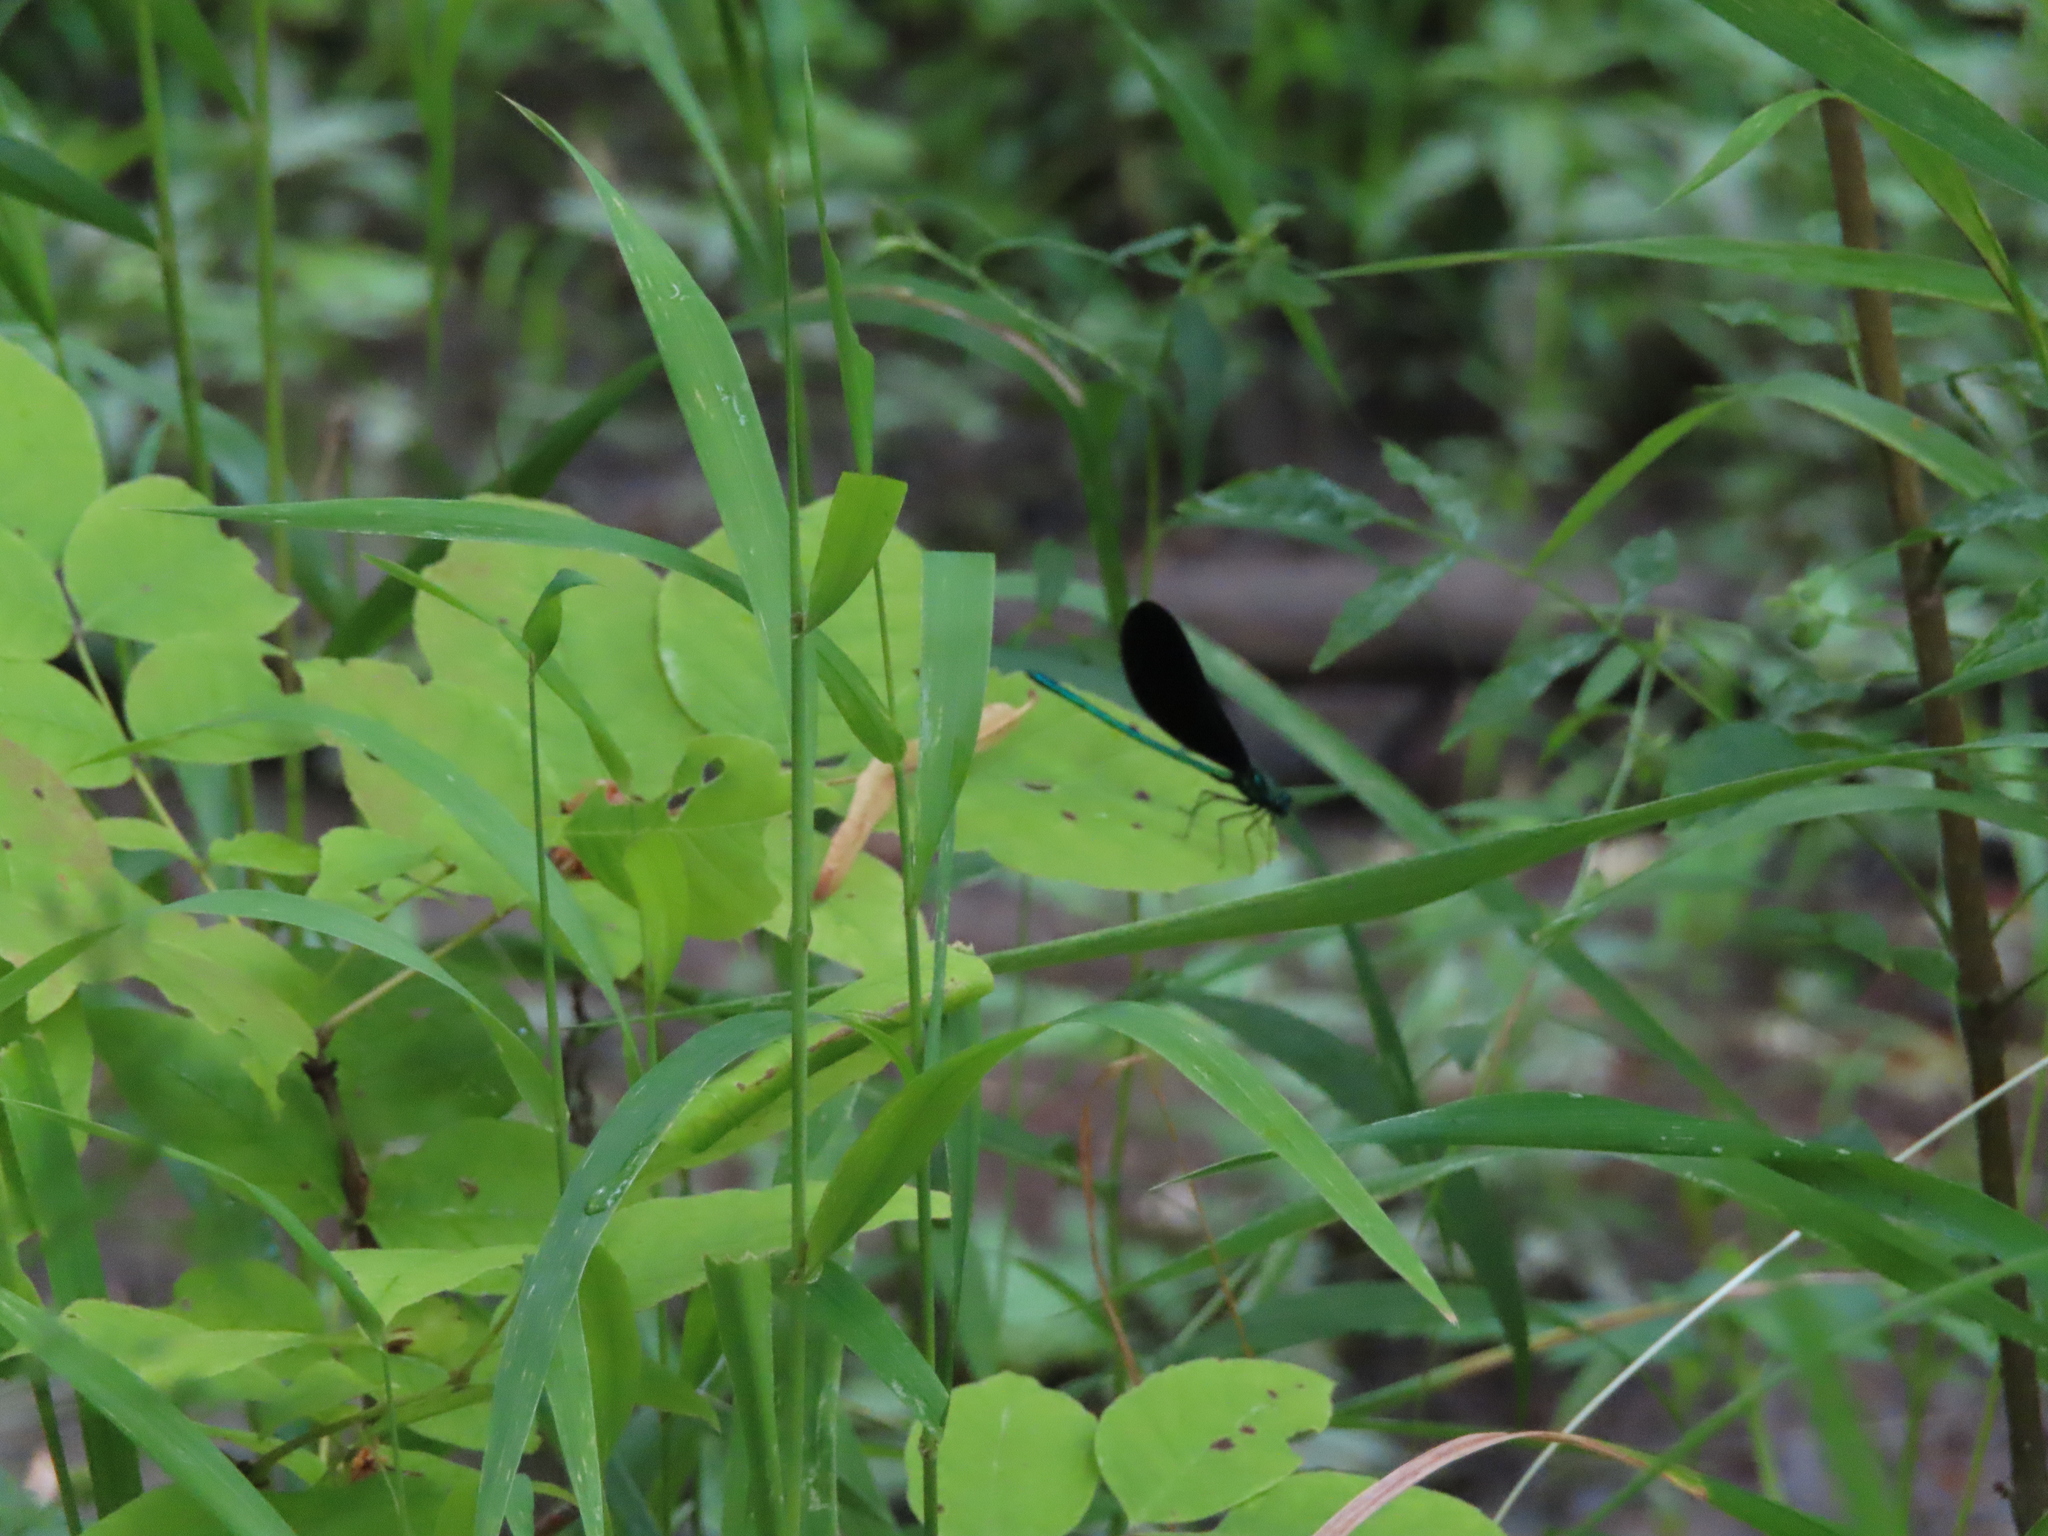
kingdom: Animalia
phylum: Arthropoda
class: Insecta
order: Odonata
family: Calopterygidae
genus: Calopteryx
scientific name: Calopteryx maculata
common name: Ebony jewelwing
